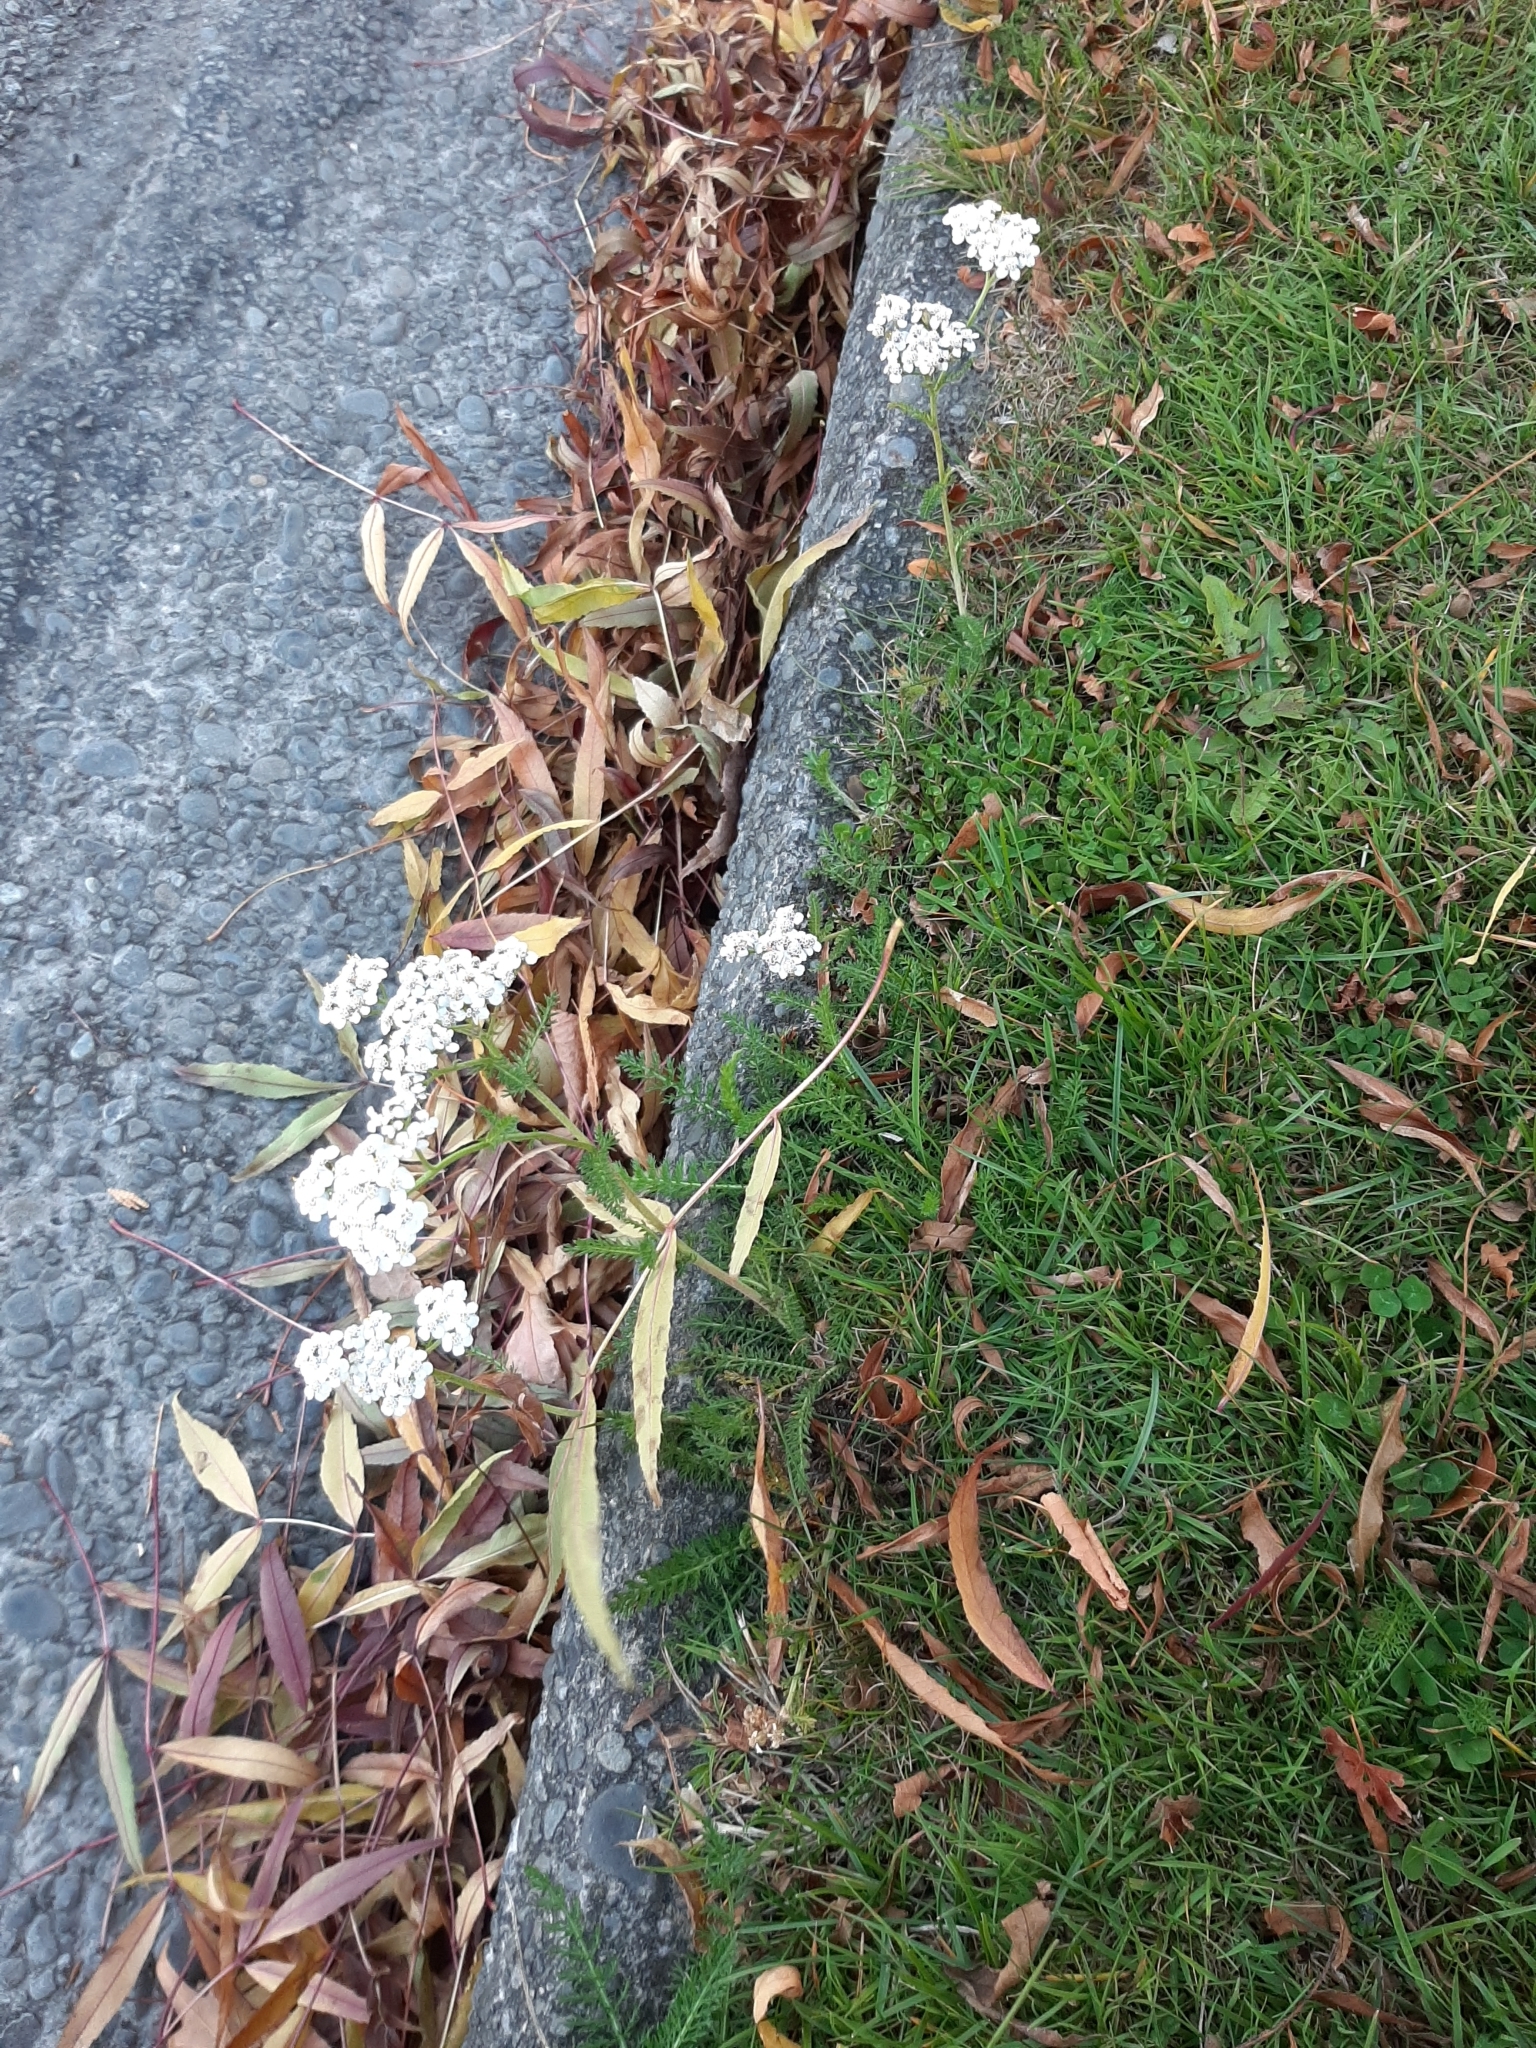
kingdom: Plantae
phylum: Tracheophyta
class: Magnoliopsida
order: Asterales
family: Asteraceae
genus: Achillea
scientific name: Achillea millefolium
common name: Yarrow
